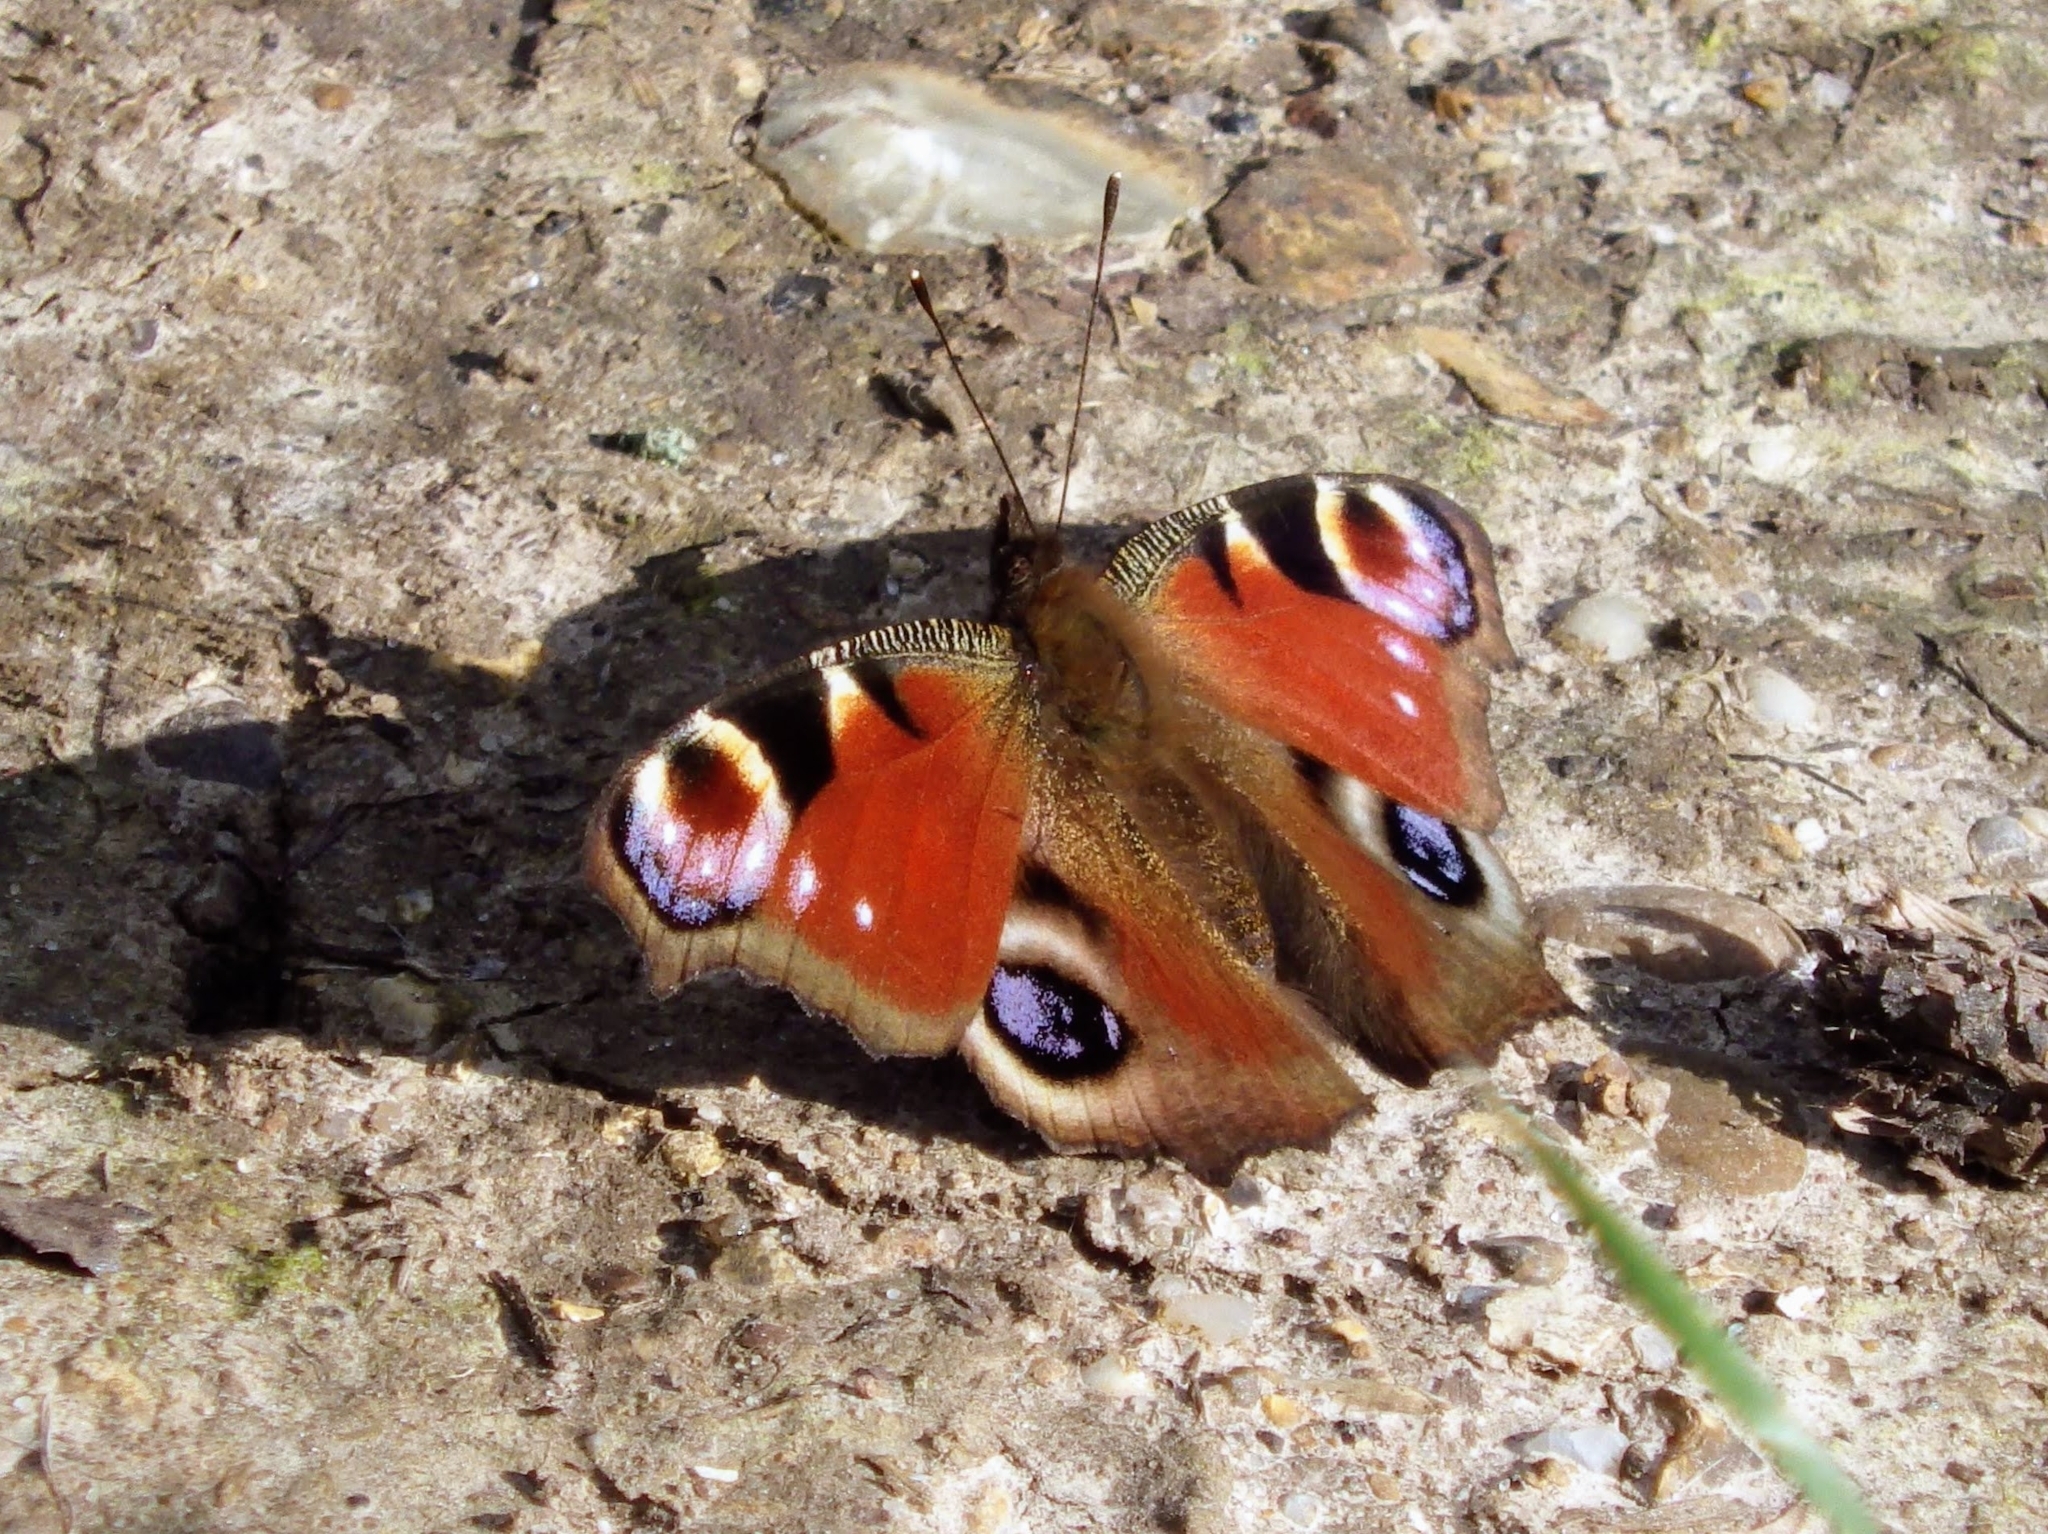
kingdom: Animalia
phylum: Arthropoda
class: Insecta
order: Lepidoptera
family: Nymphalidae
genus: Aglais
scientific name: Aglais io
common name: Peacock
